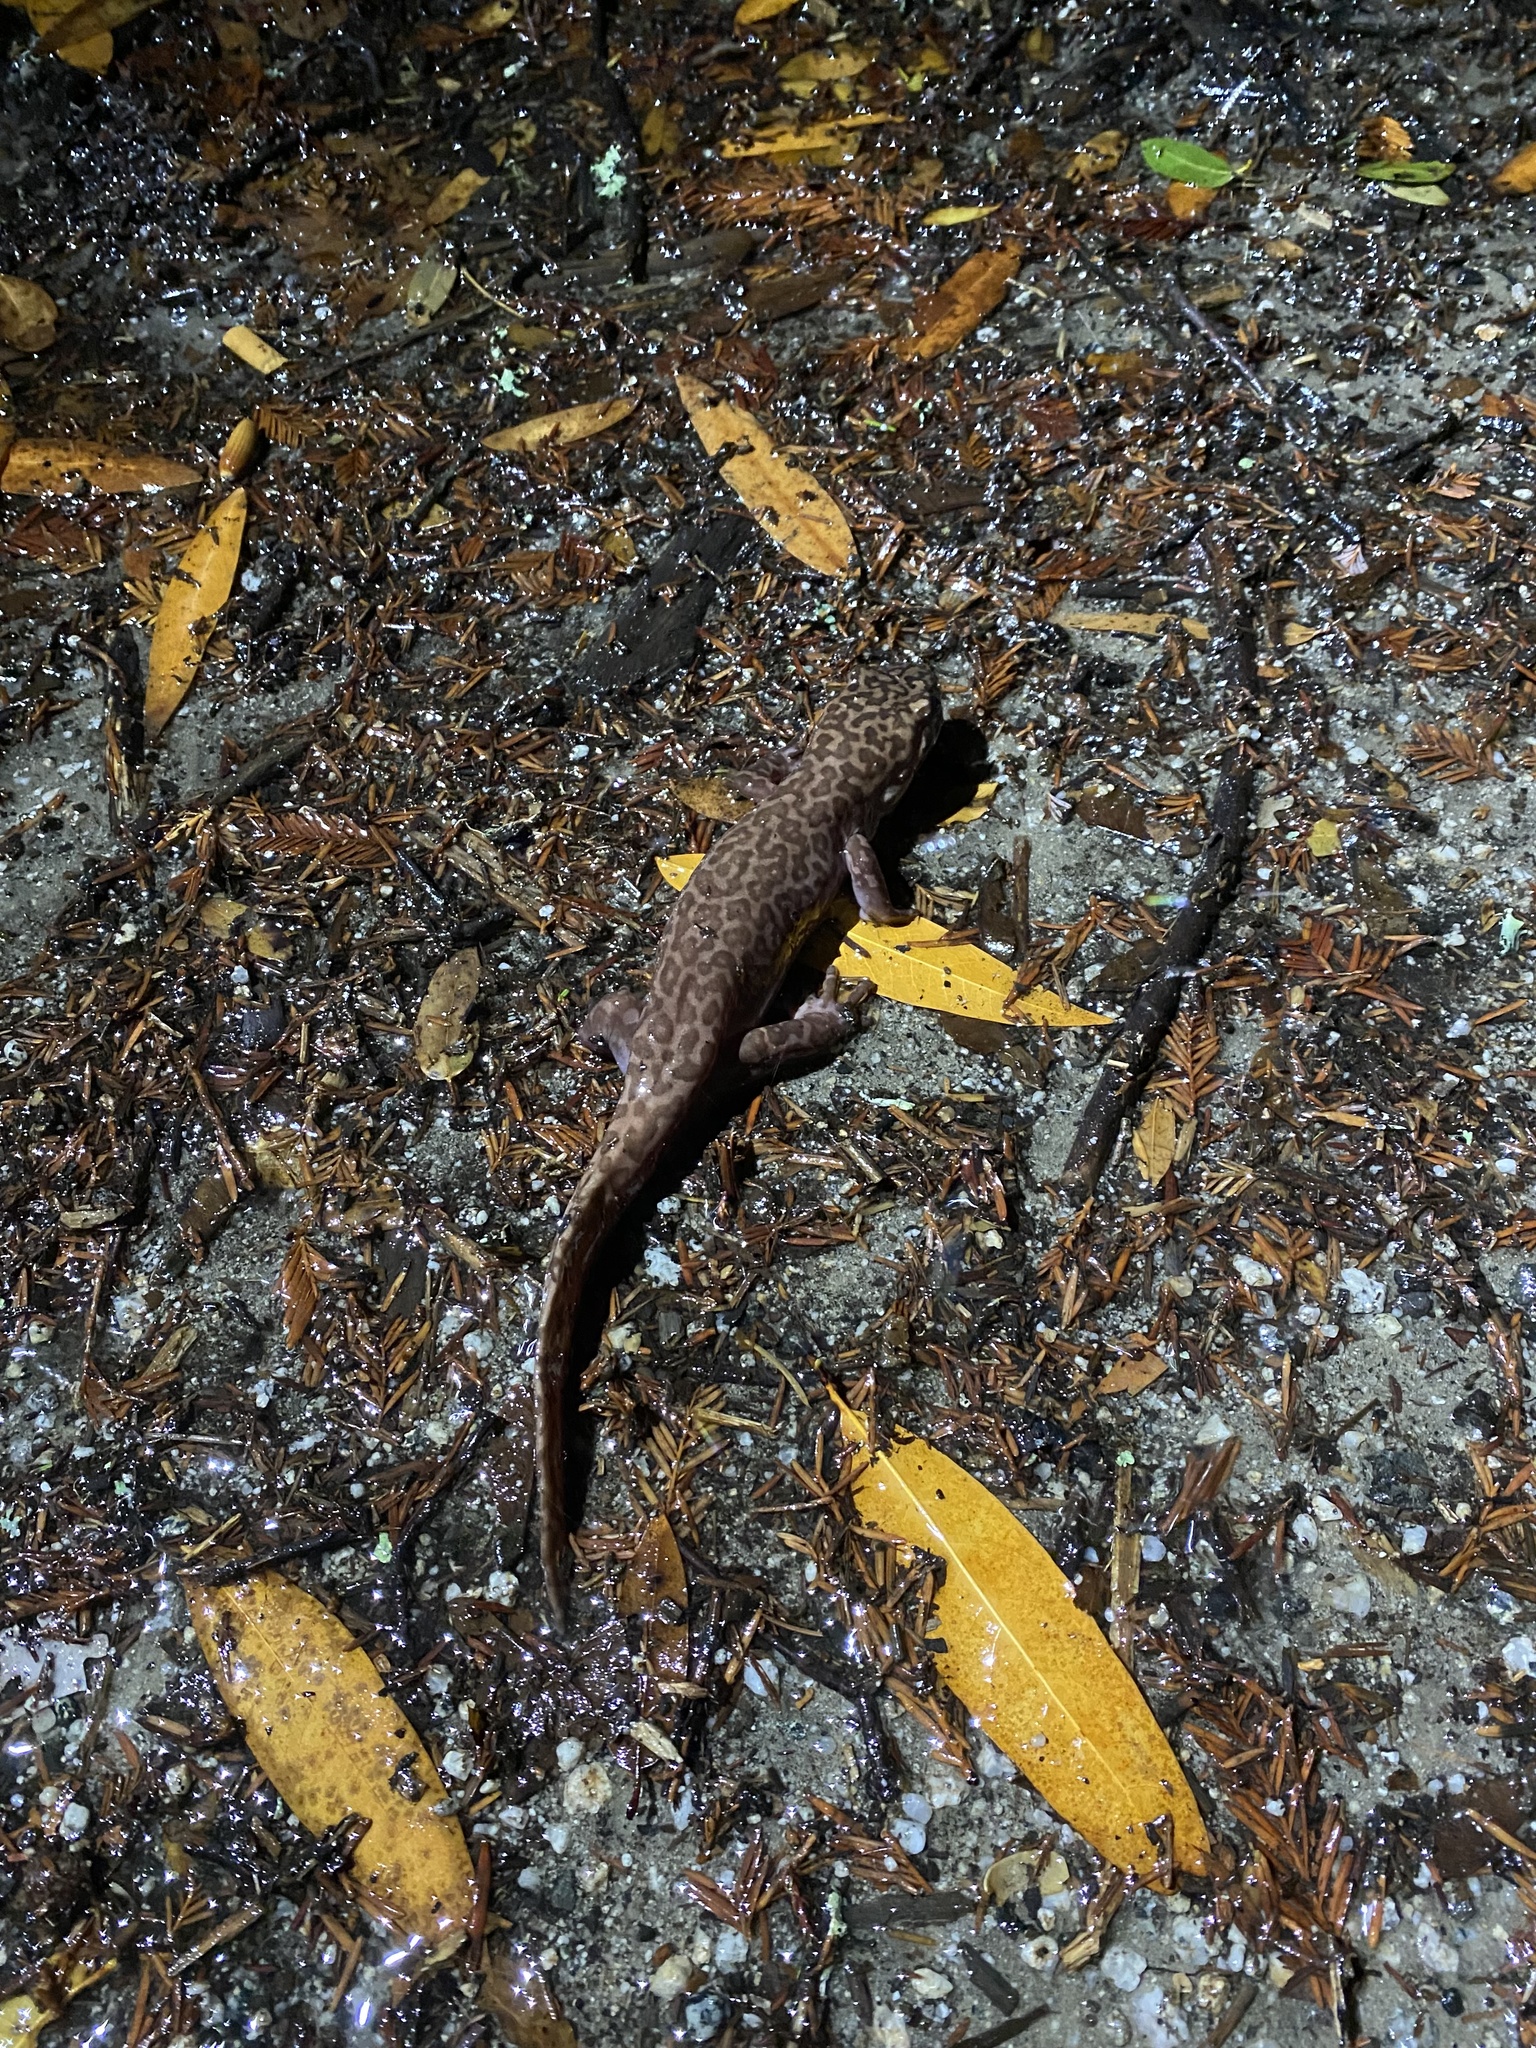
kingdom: Animalia
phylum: Chordata
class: Amphibia
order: Caudata
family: Ambystomatidae
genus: Dicamptodon
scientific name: Dicamptodon ensatus
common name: California giant salamander
